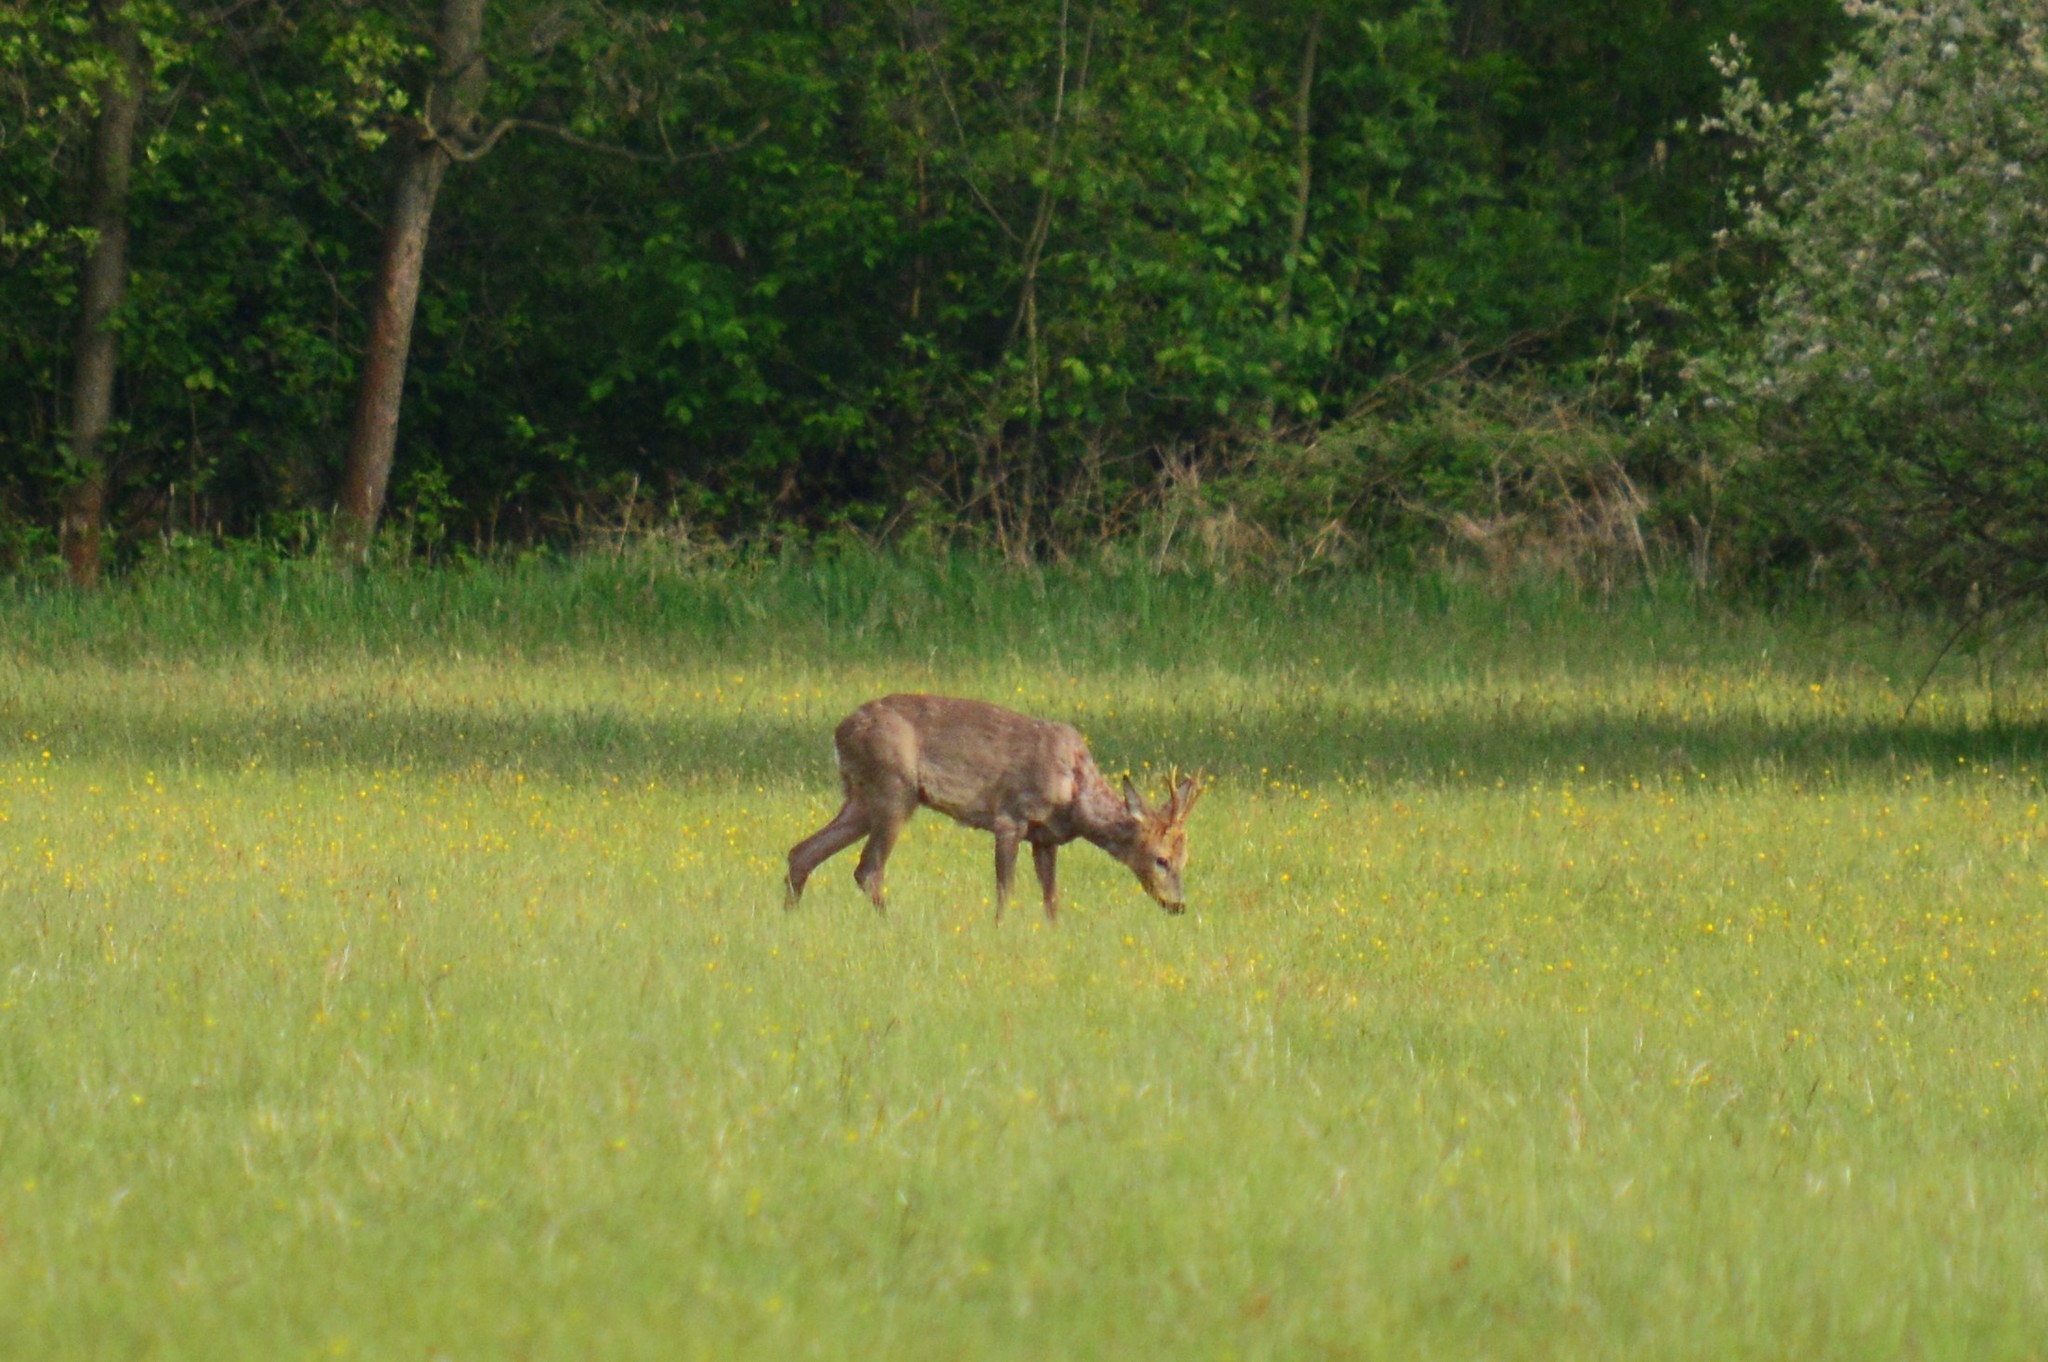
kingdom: Animalia
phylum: Chordata
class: Mammalia
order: Artiodactyla
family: Cervidae
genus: Capreolus
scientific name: Capreolus capreolus
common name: Western roe deer
